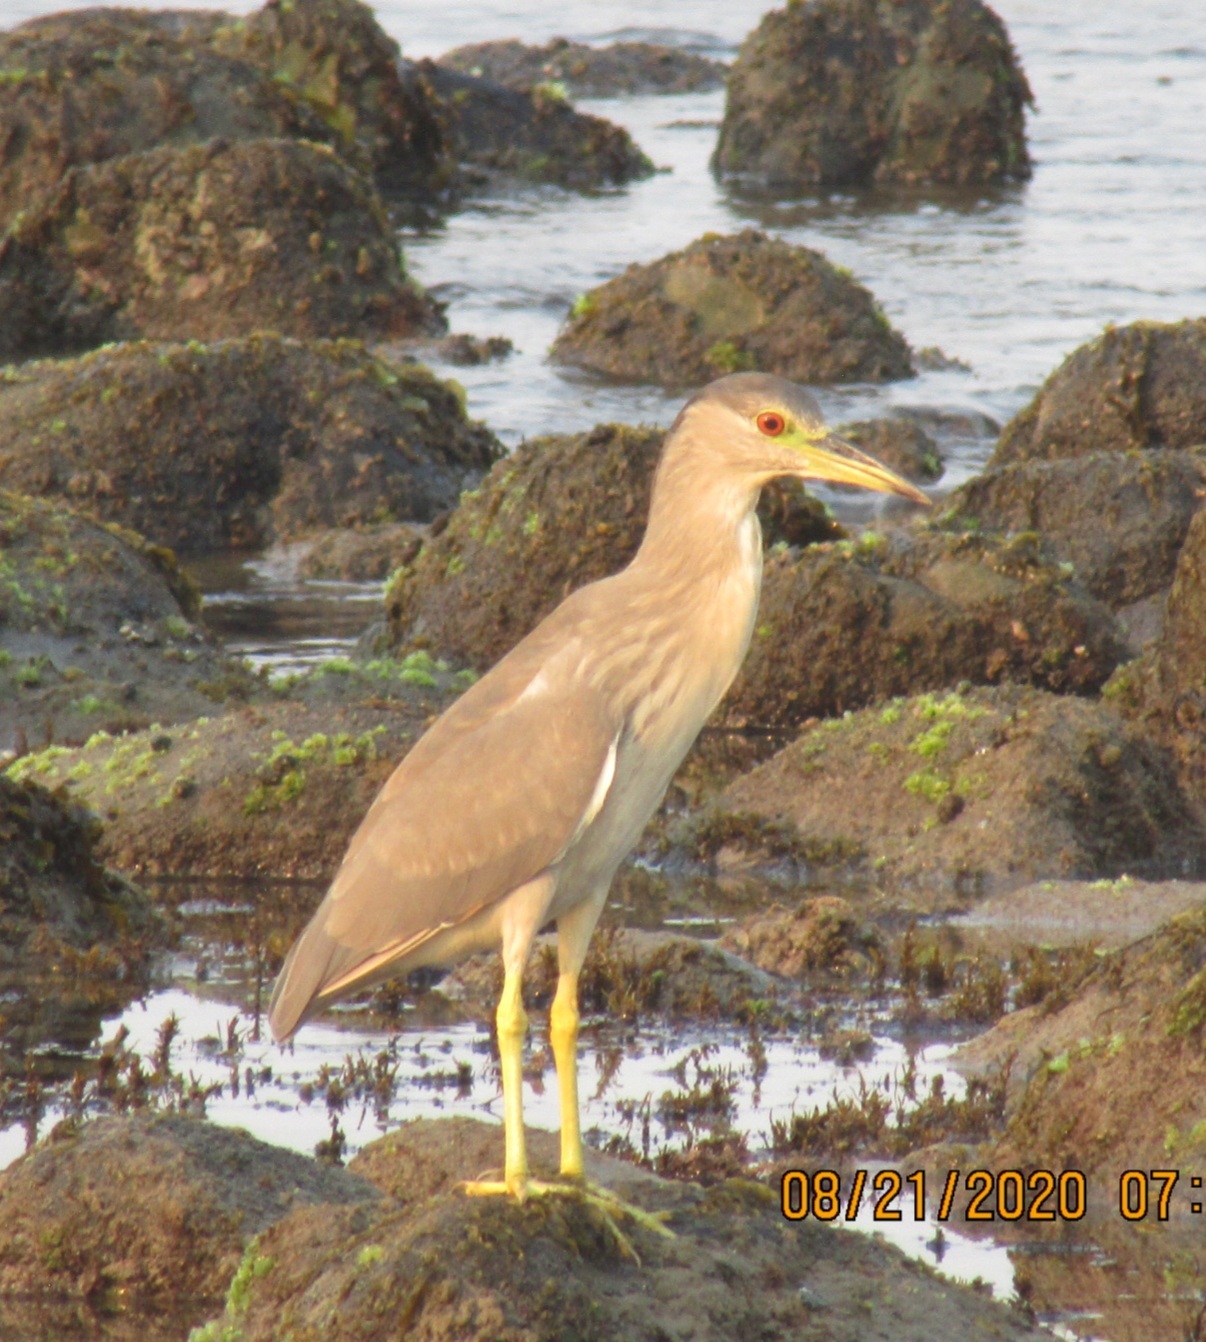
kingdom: Animalia
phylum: Chordata
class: Aves
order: Pelecaniformes
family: Ardeidae
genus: Nycticorax
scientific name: Nycticorax nycticorax
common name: Black-crowned night heron
